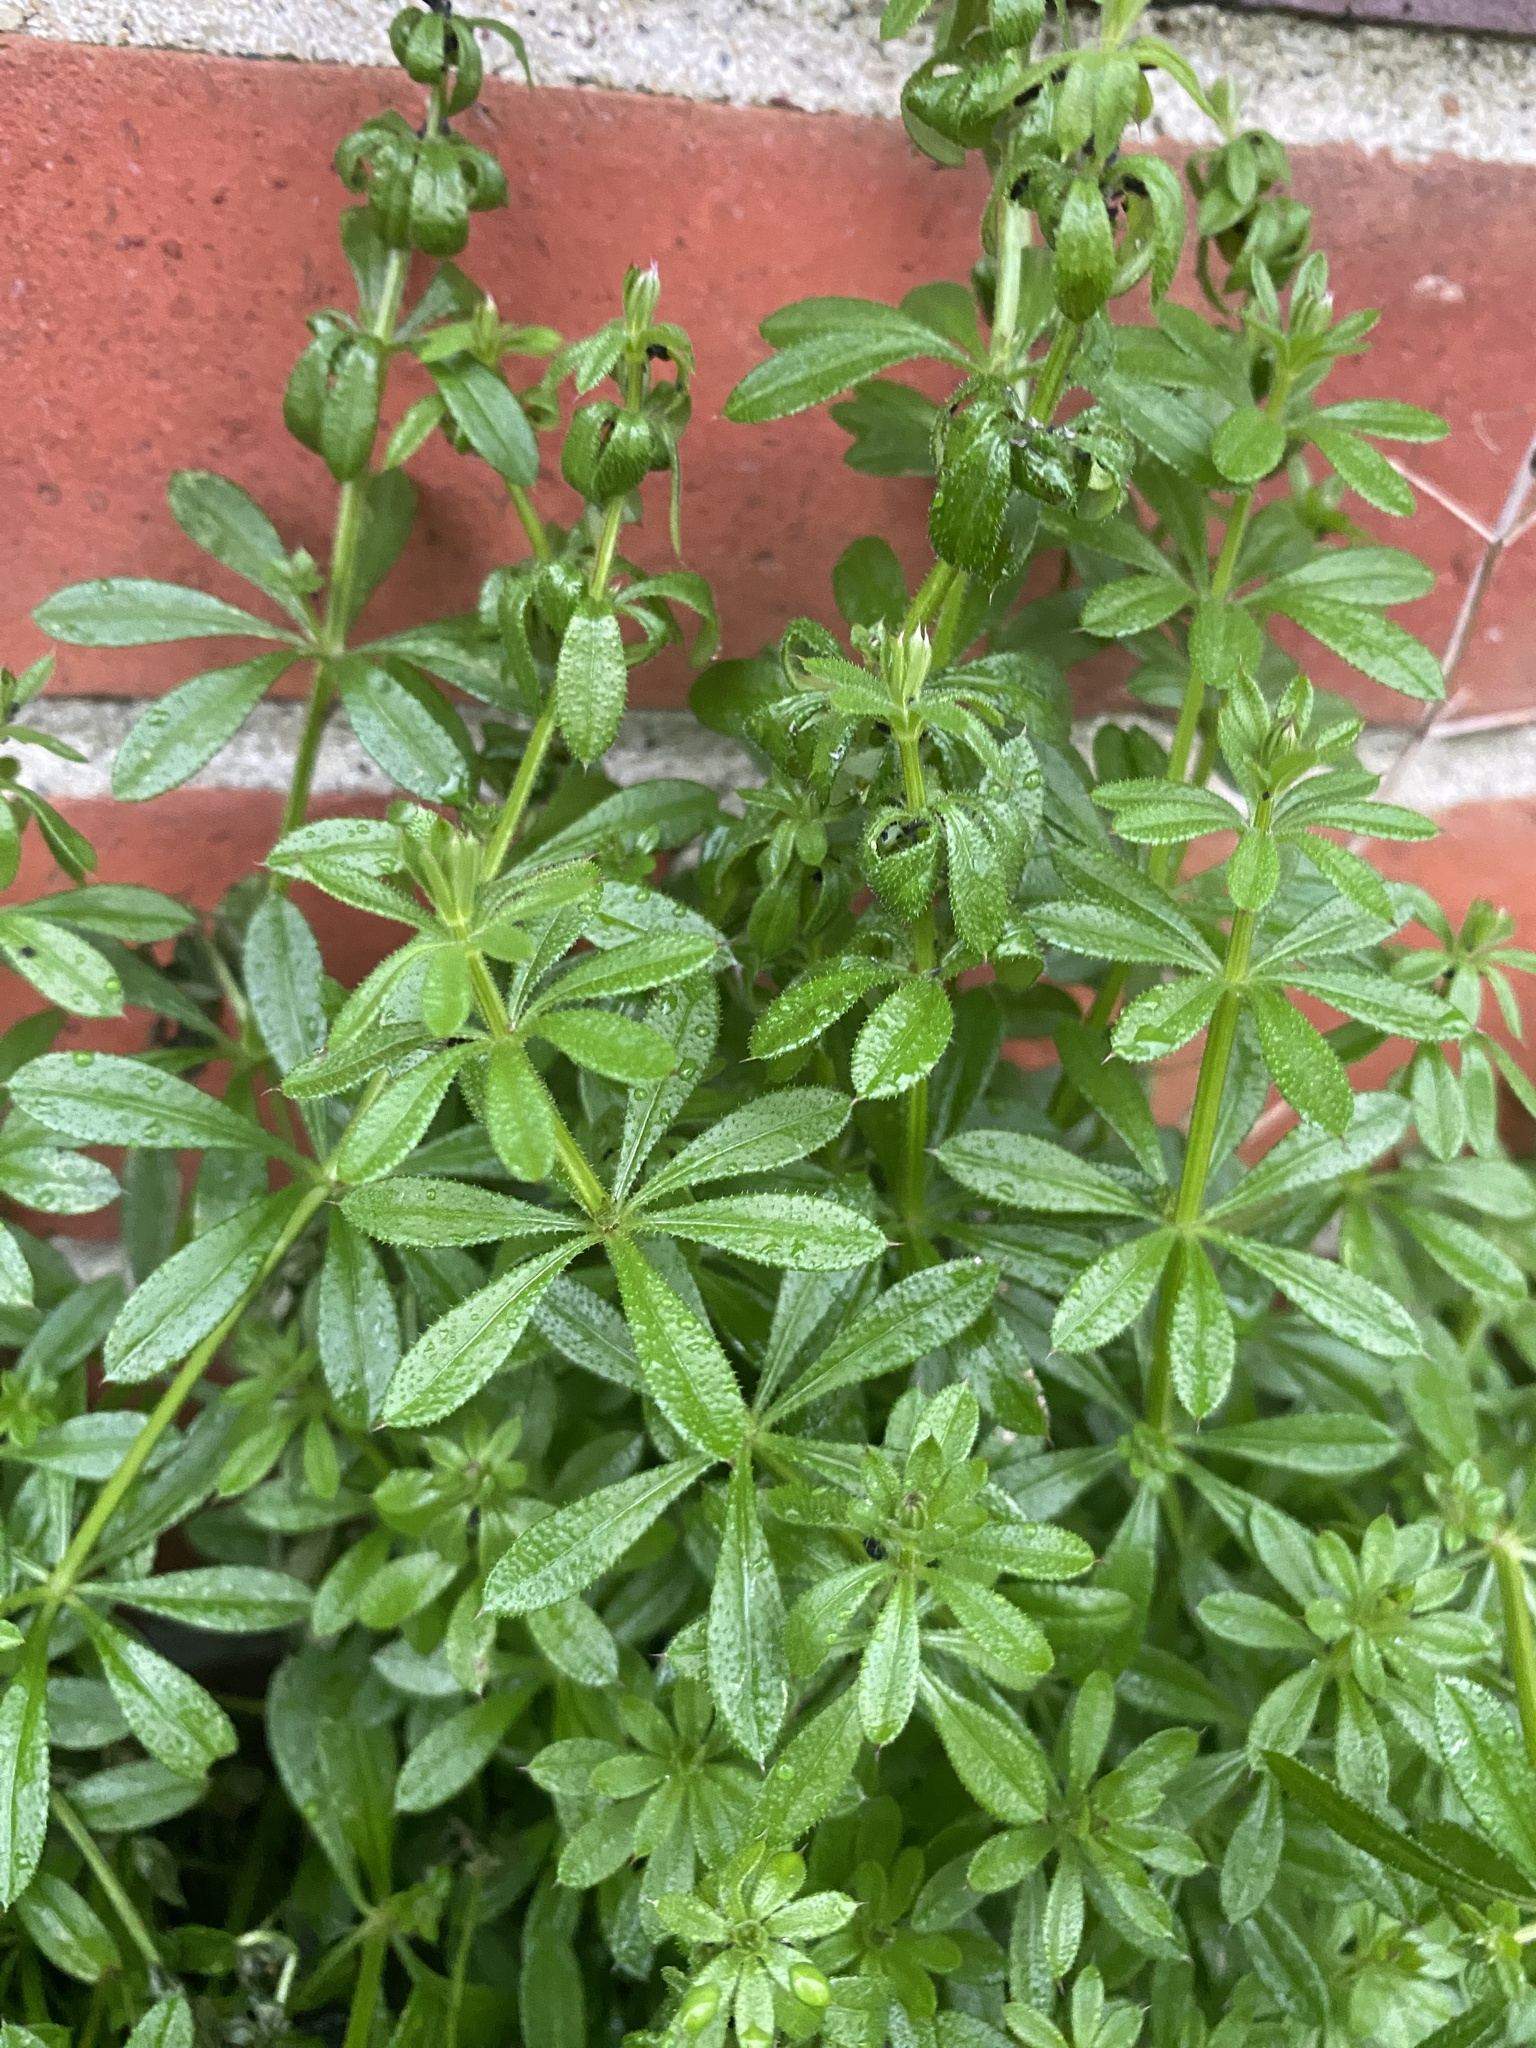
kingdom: Plantae
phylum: Tracheophyta
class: Magnoliopsida
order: Gentianales
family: Rubiaceae
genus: Galium
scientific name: Galium aparine
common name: Cleavers
